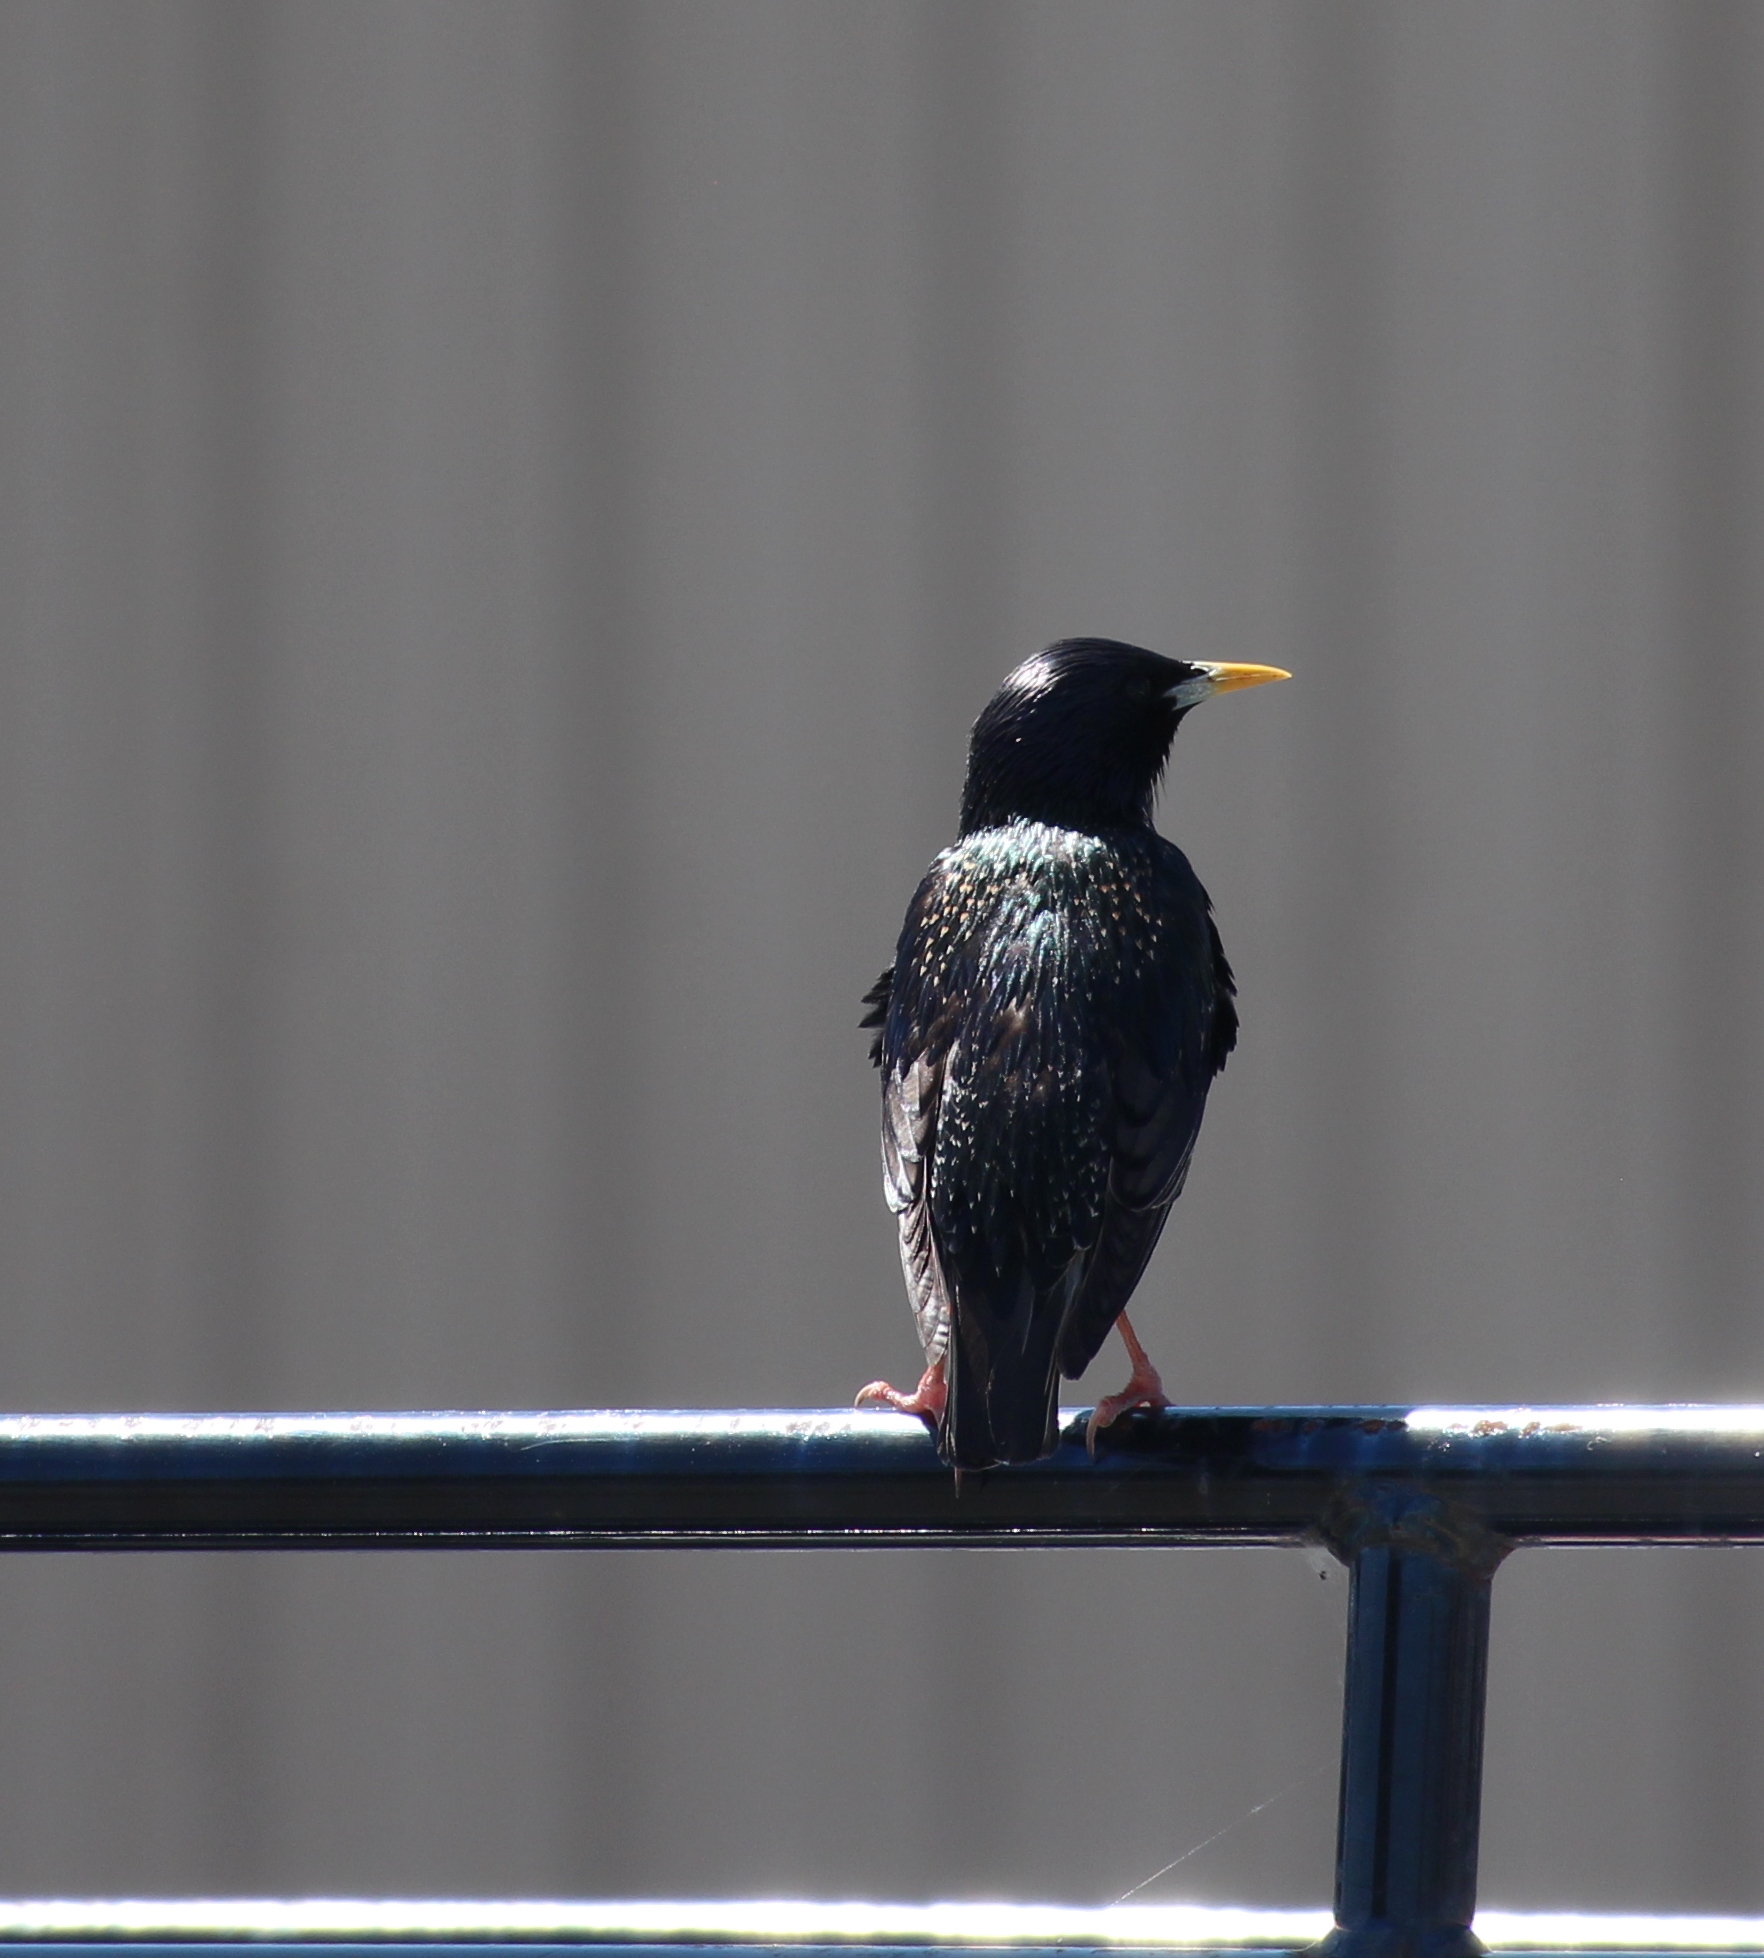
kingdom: Animalia
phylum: Chordata
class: Aves
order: Passeriformes
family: Sturnidae
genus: Sturnus
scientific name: Sturnus vulgaris
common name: Common starling
